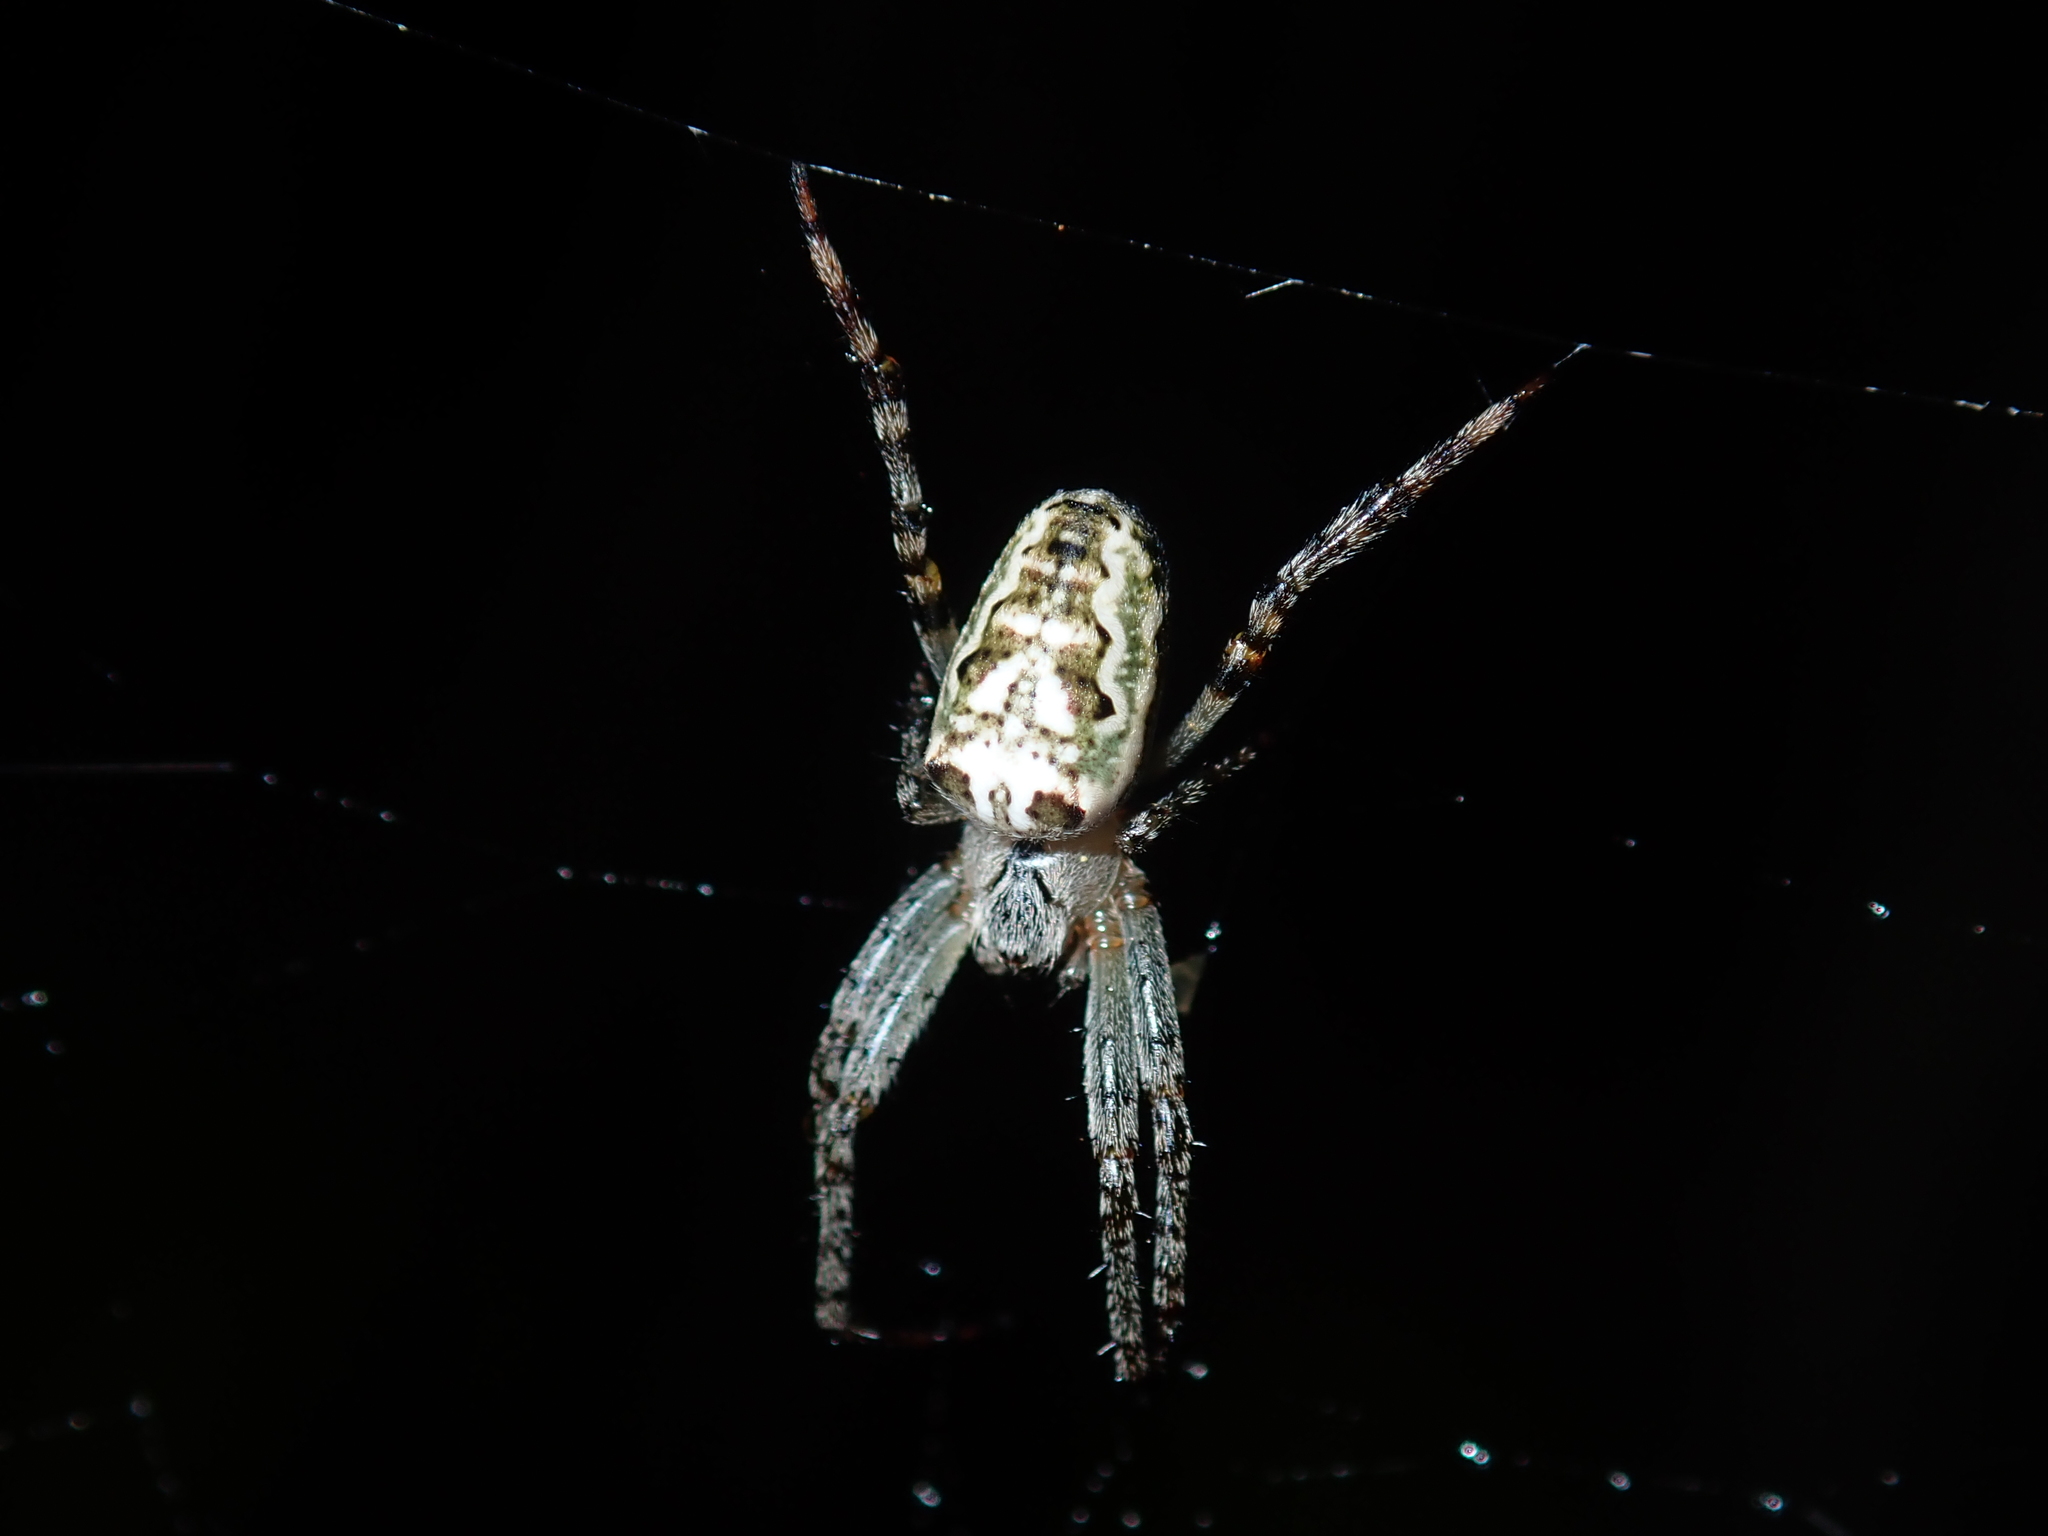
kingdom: Animalia
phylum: Arthropoda
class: Arachnida
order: Araneae
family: Araneidae
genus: Plebs
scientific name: Plebs bradleyi
